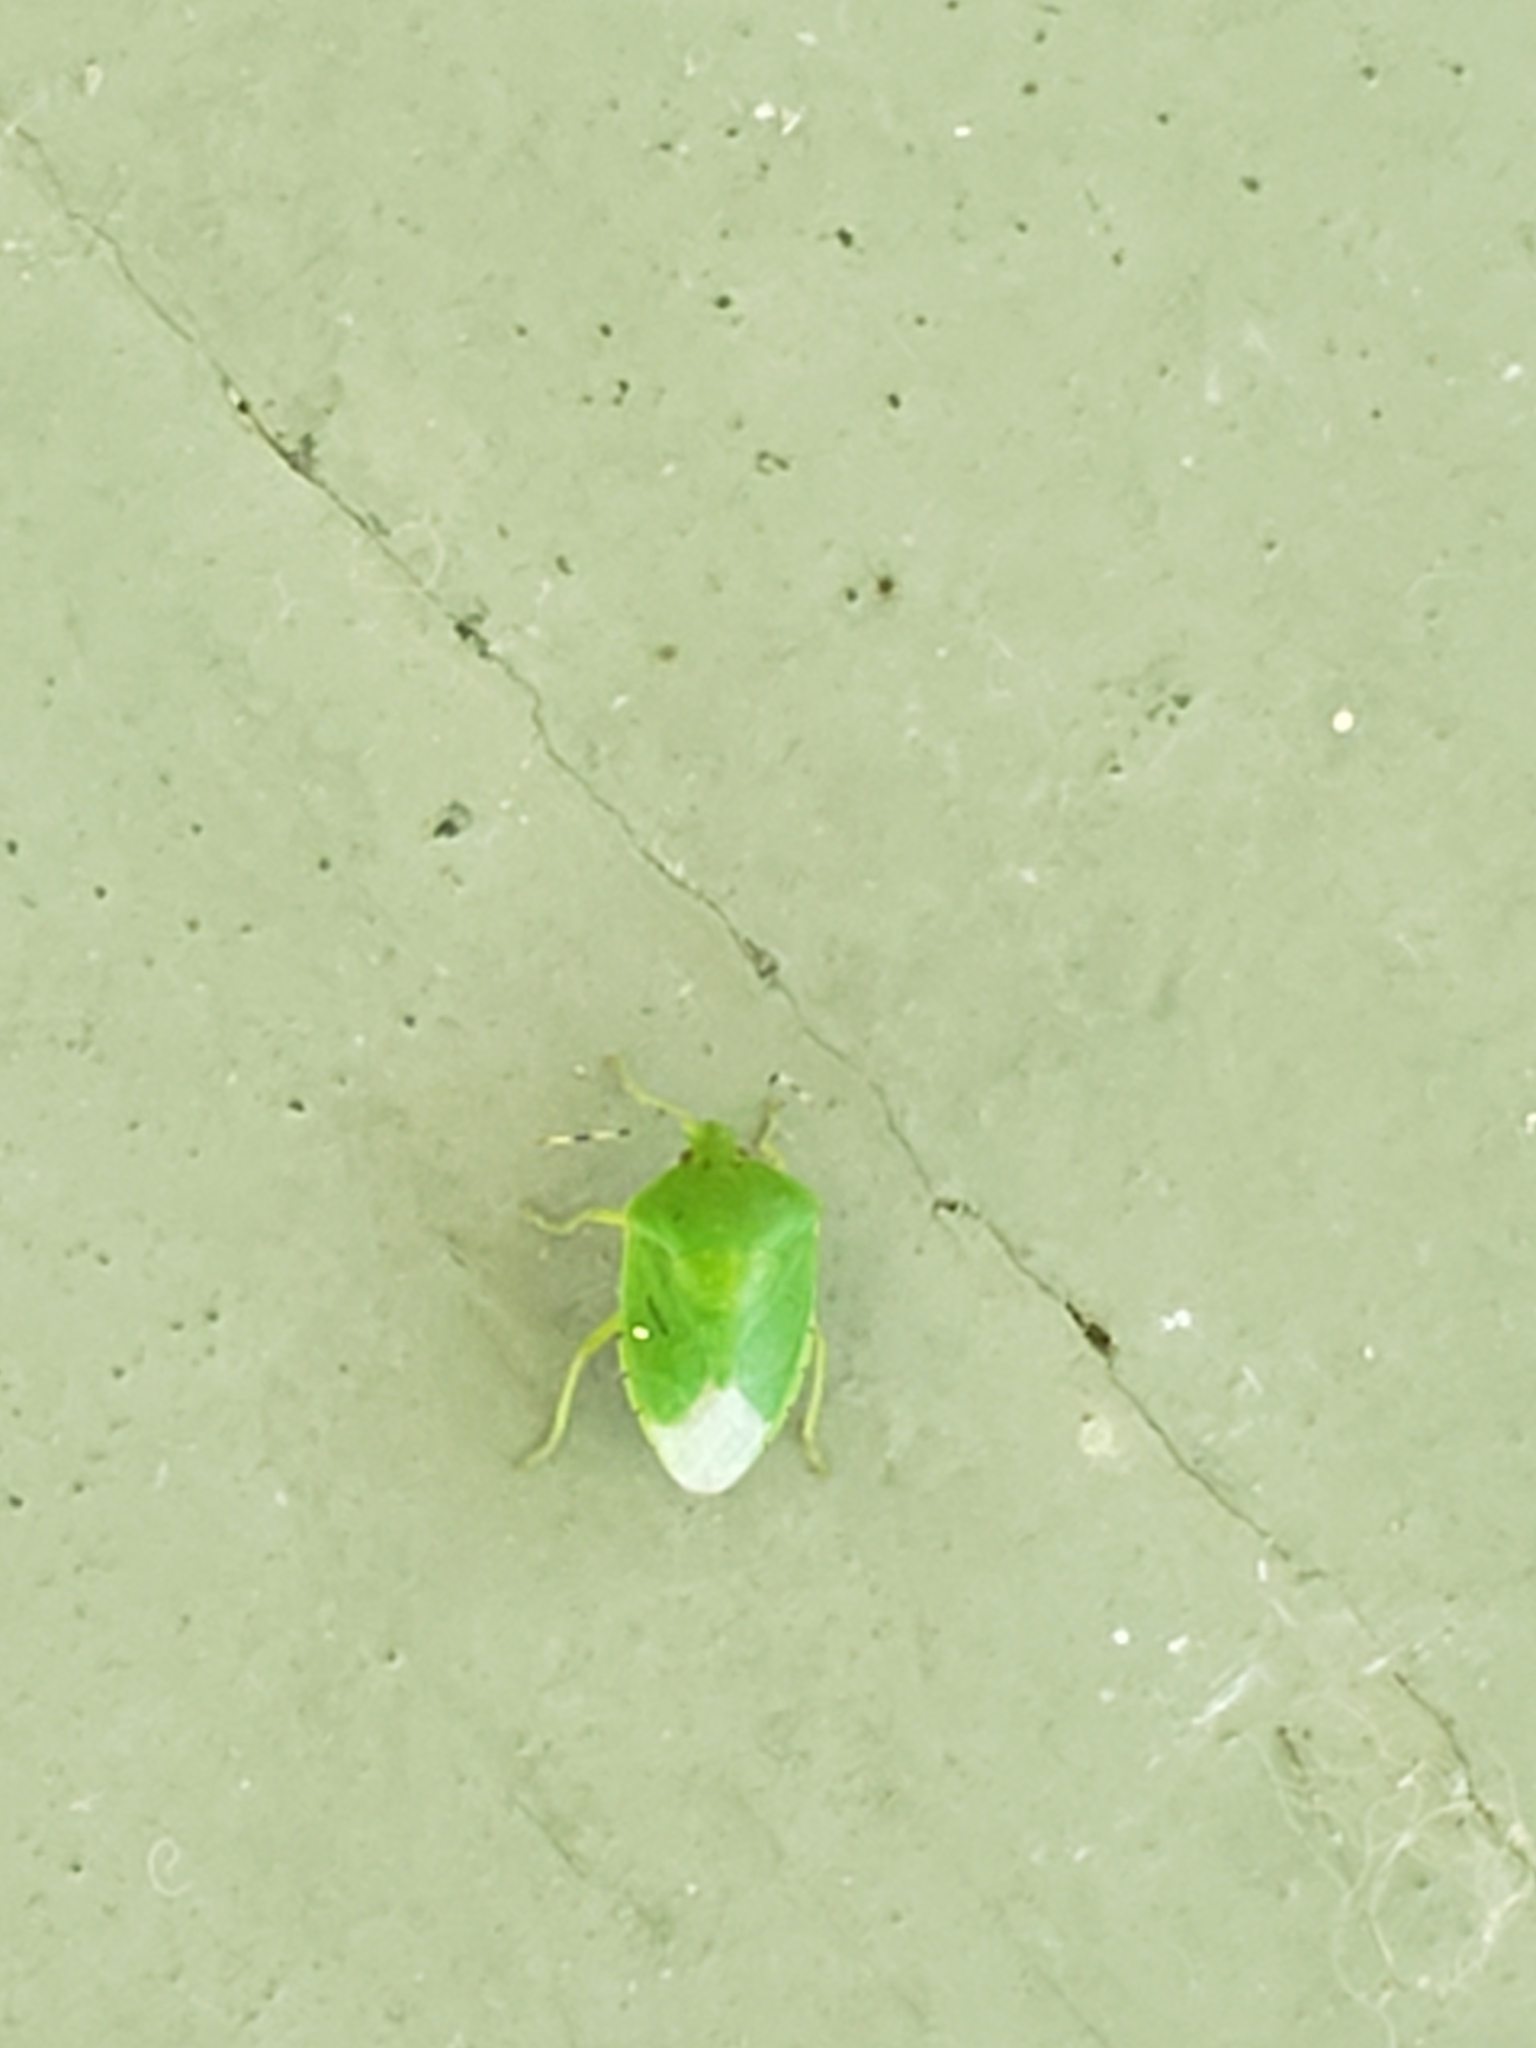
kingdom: Animalia
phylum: Arthropoda
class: Insecta
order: Hemiptera
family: Pentatomidae
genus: Chinavia
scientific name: Chinavia hilaris
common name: Green stink bug
